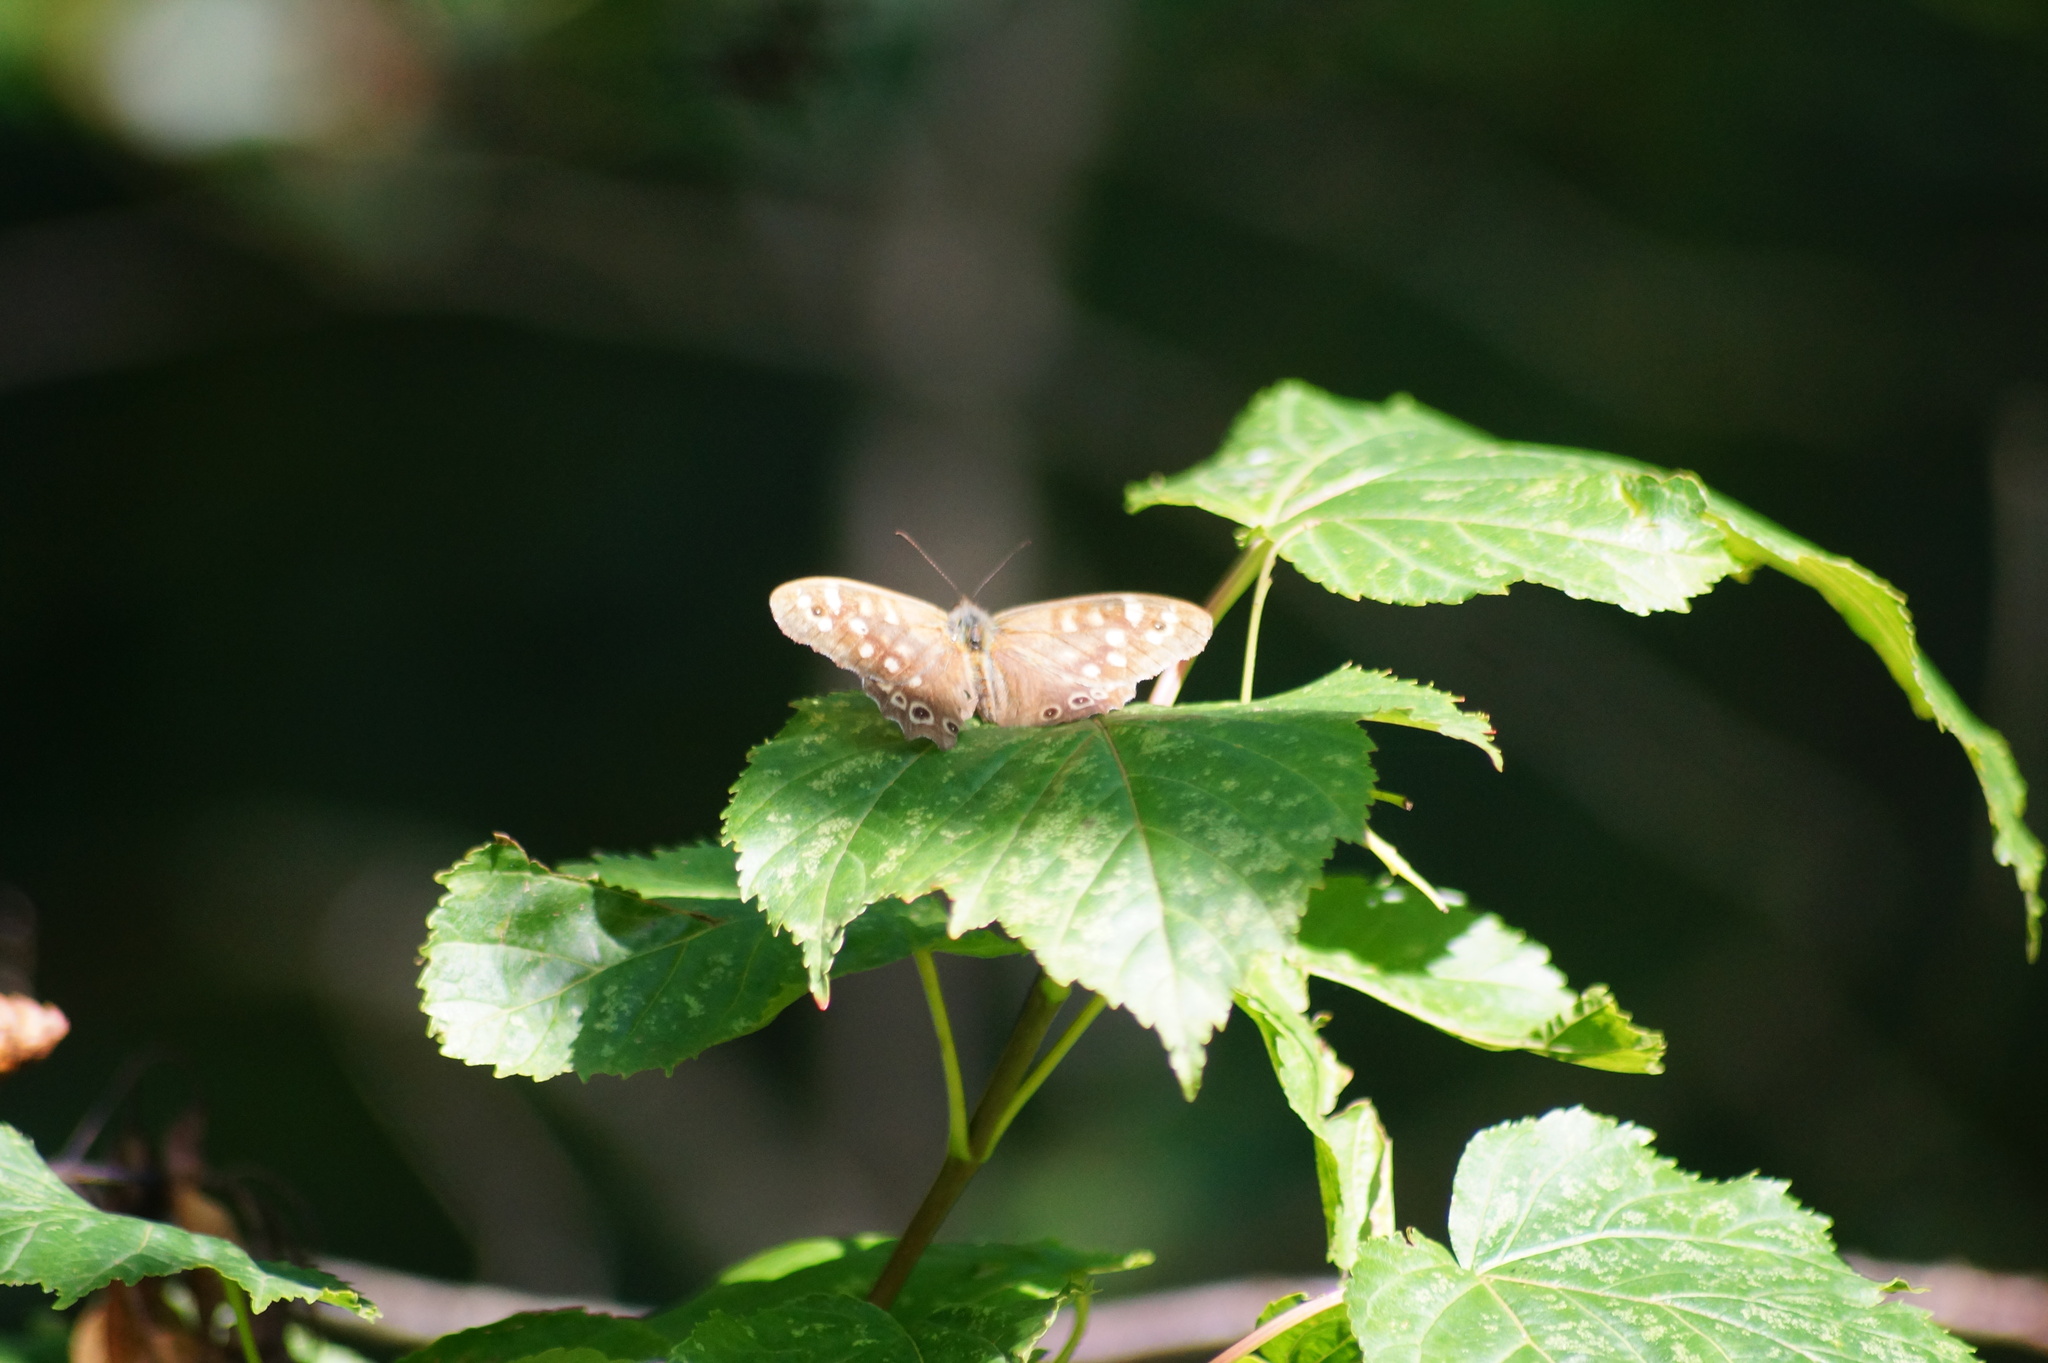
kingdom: Animalia
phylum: Arthropoda
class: Insecta
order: Lepidoptera
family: Nymphalidae
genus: Pararge
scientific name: Pararge aegeria
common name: Speckled wood
